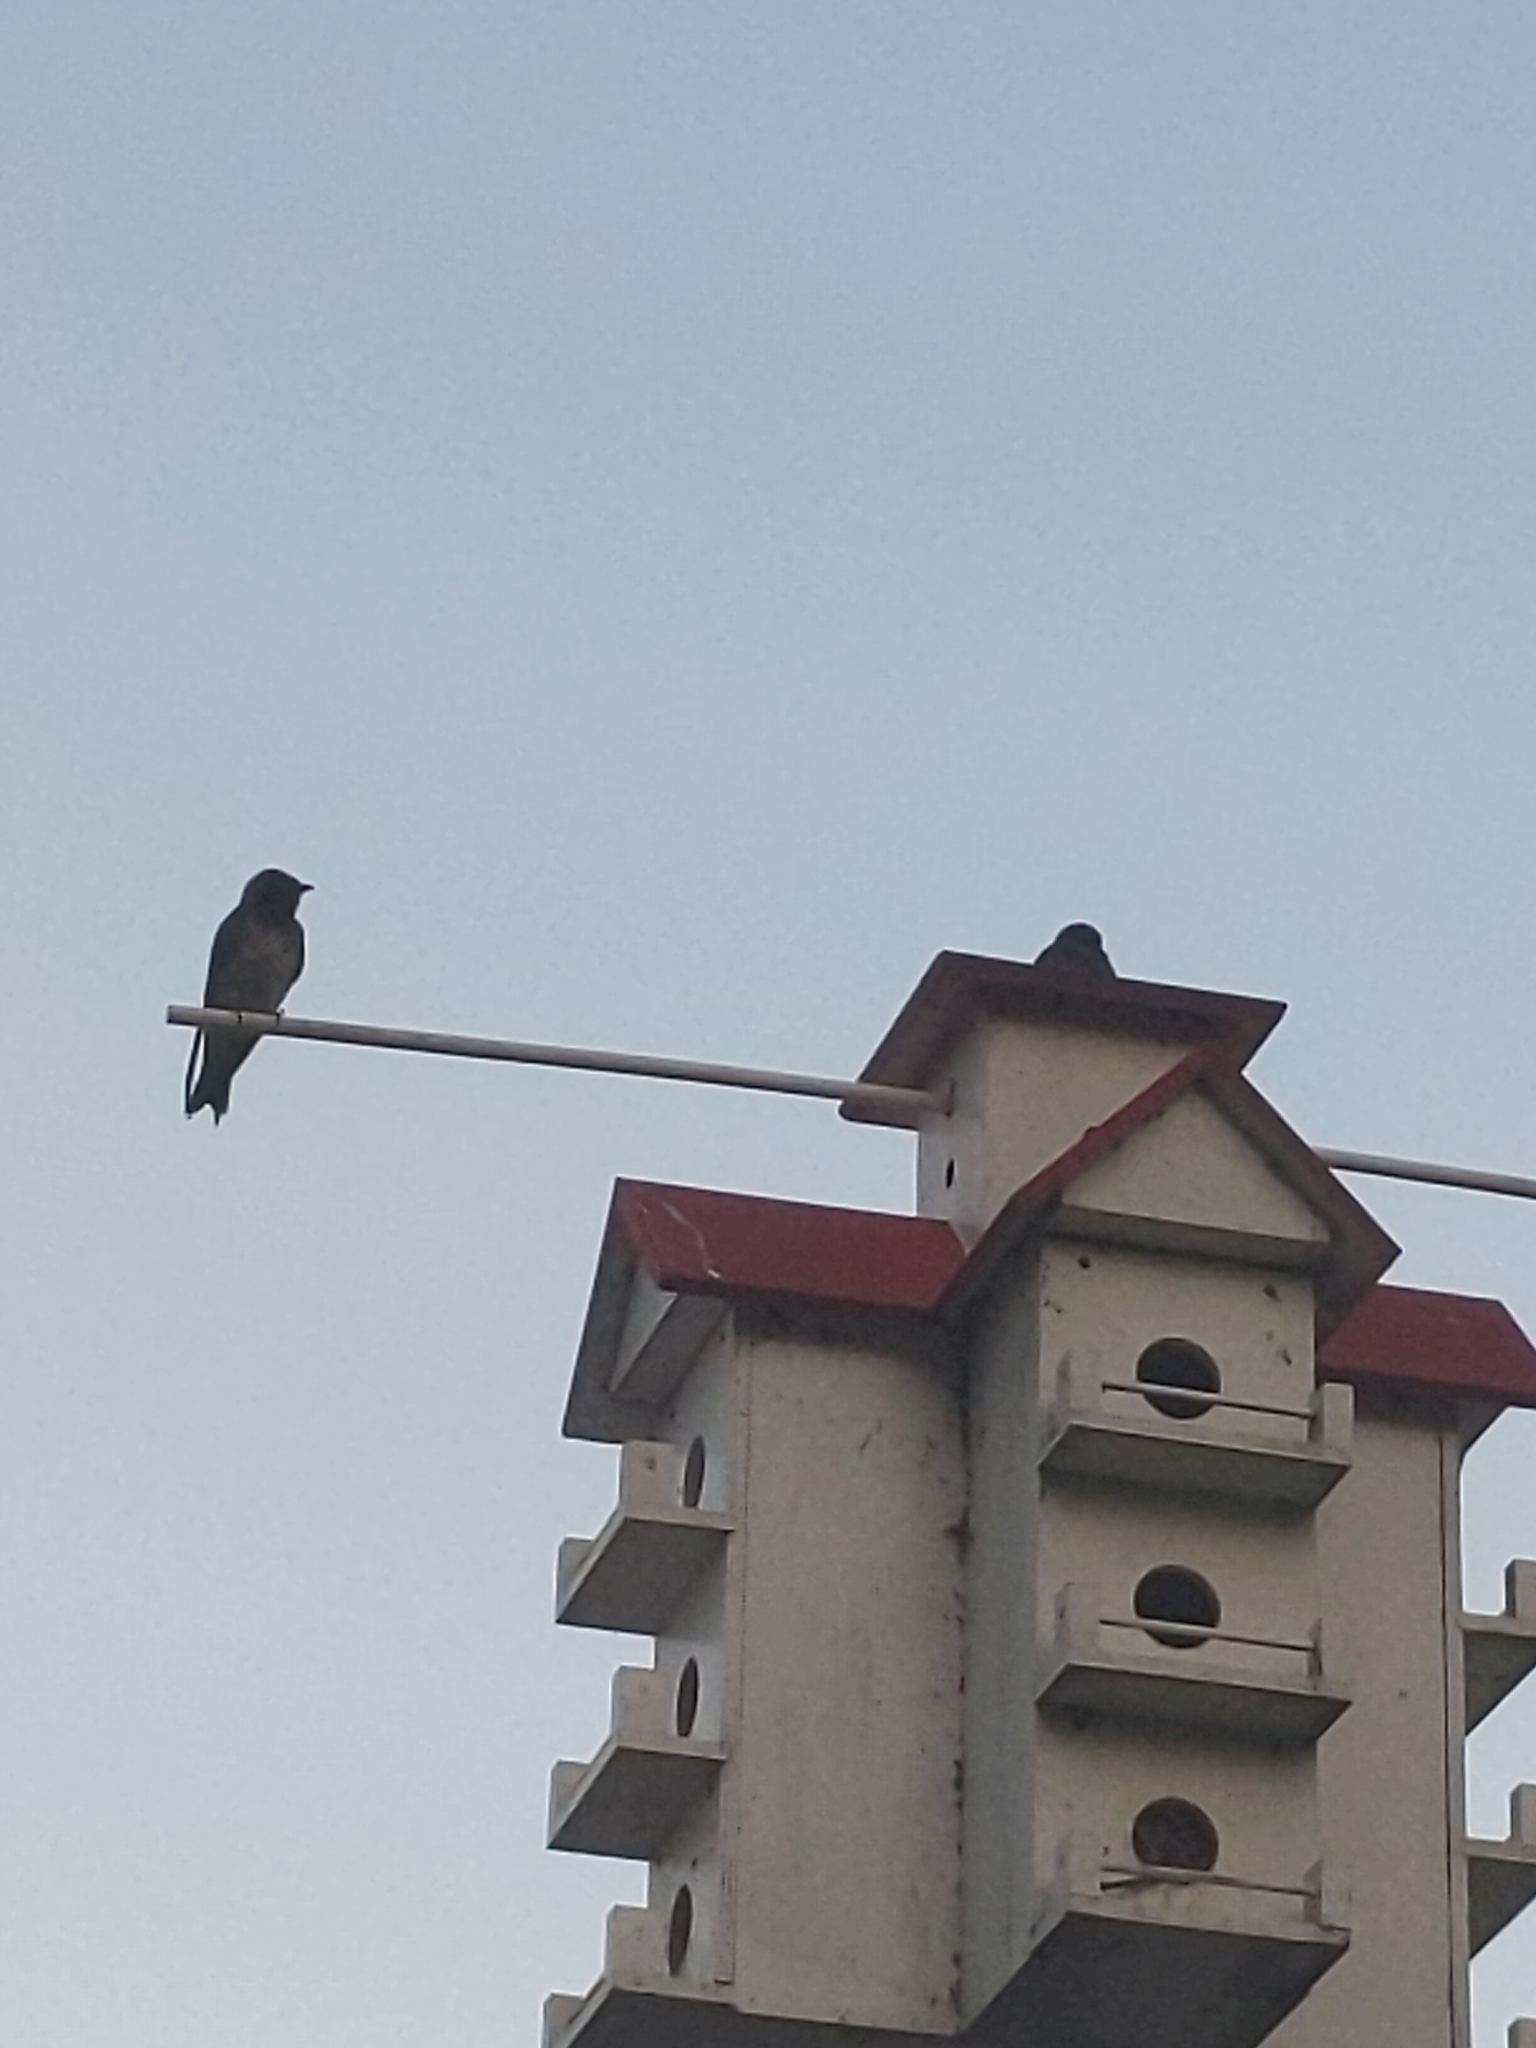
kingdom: Animalia
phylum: Chordata
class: Aves
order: Passeriformes
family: Hirundinidae
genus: Progne
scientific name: Progne subis
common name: Purple martin
